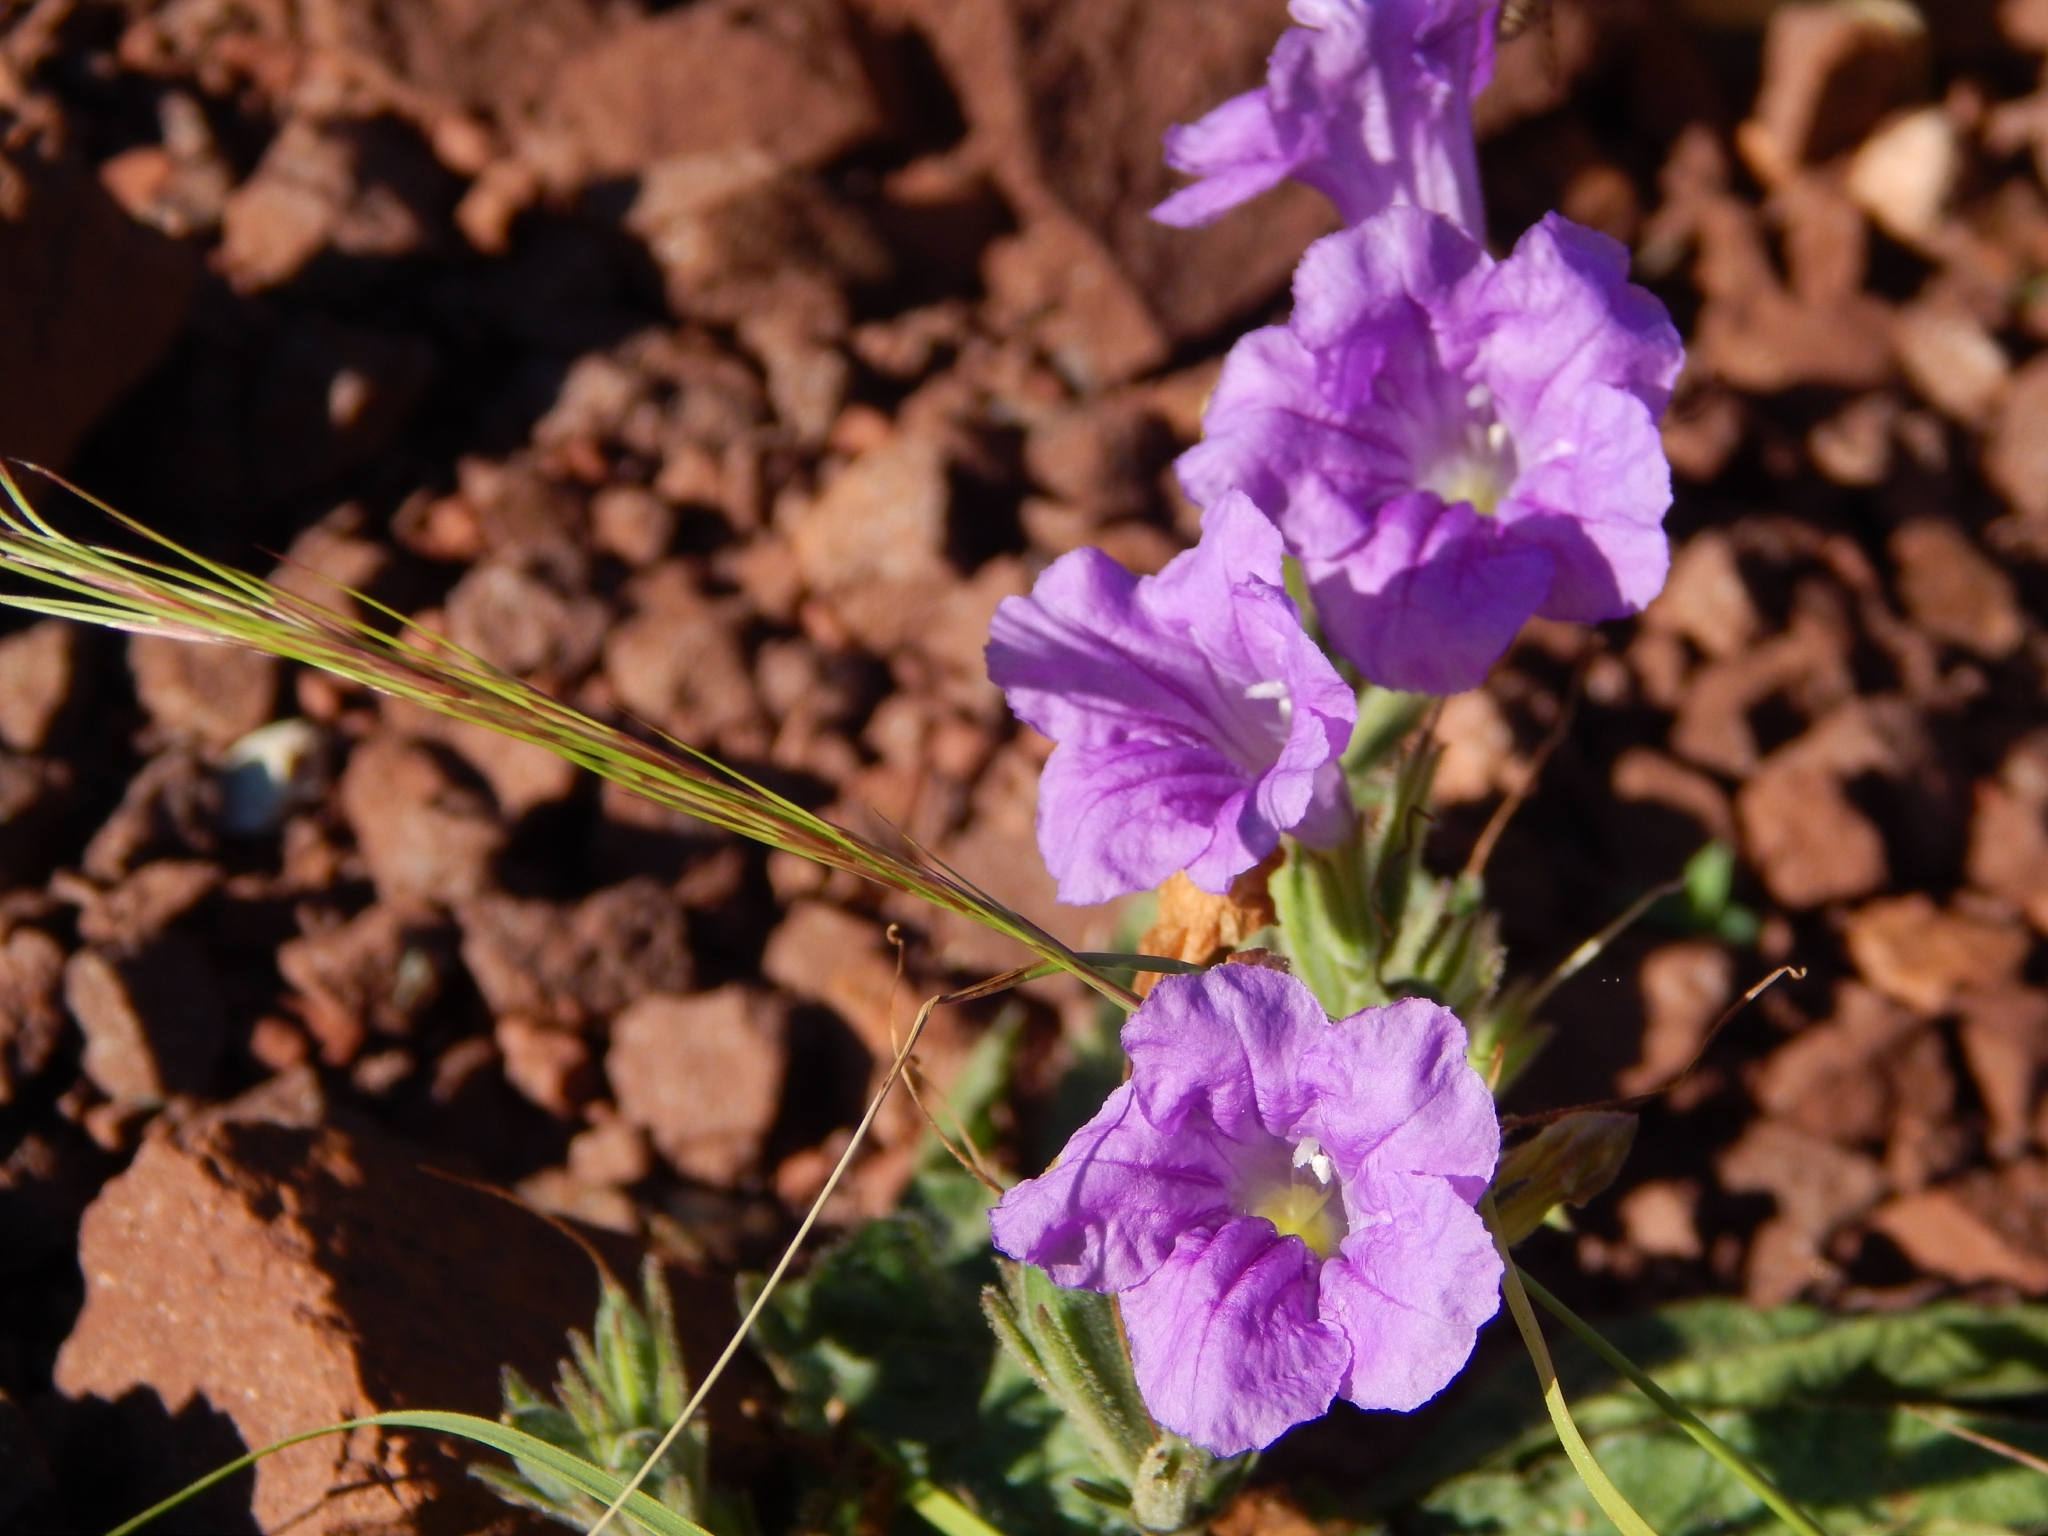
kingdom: Plantae
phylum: Tracheophyta
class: Magnoliopsida
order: Lamiales
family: Acanthaceae
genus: Ruellia
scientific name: Ruellia ciliatiflora
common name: Hairyflower wild petunia
